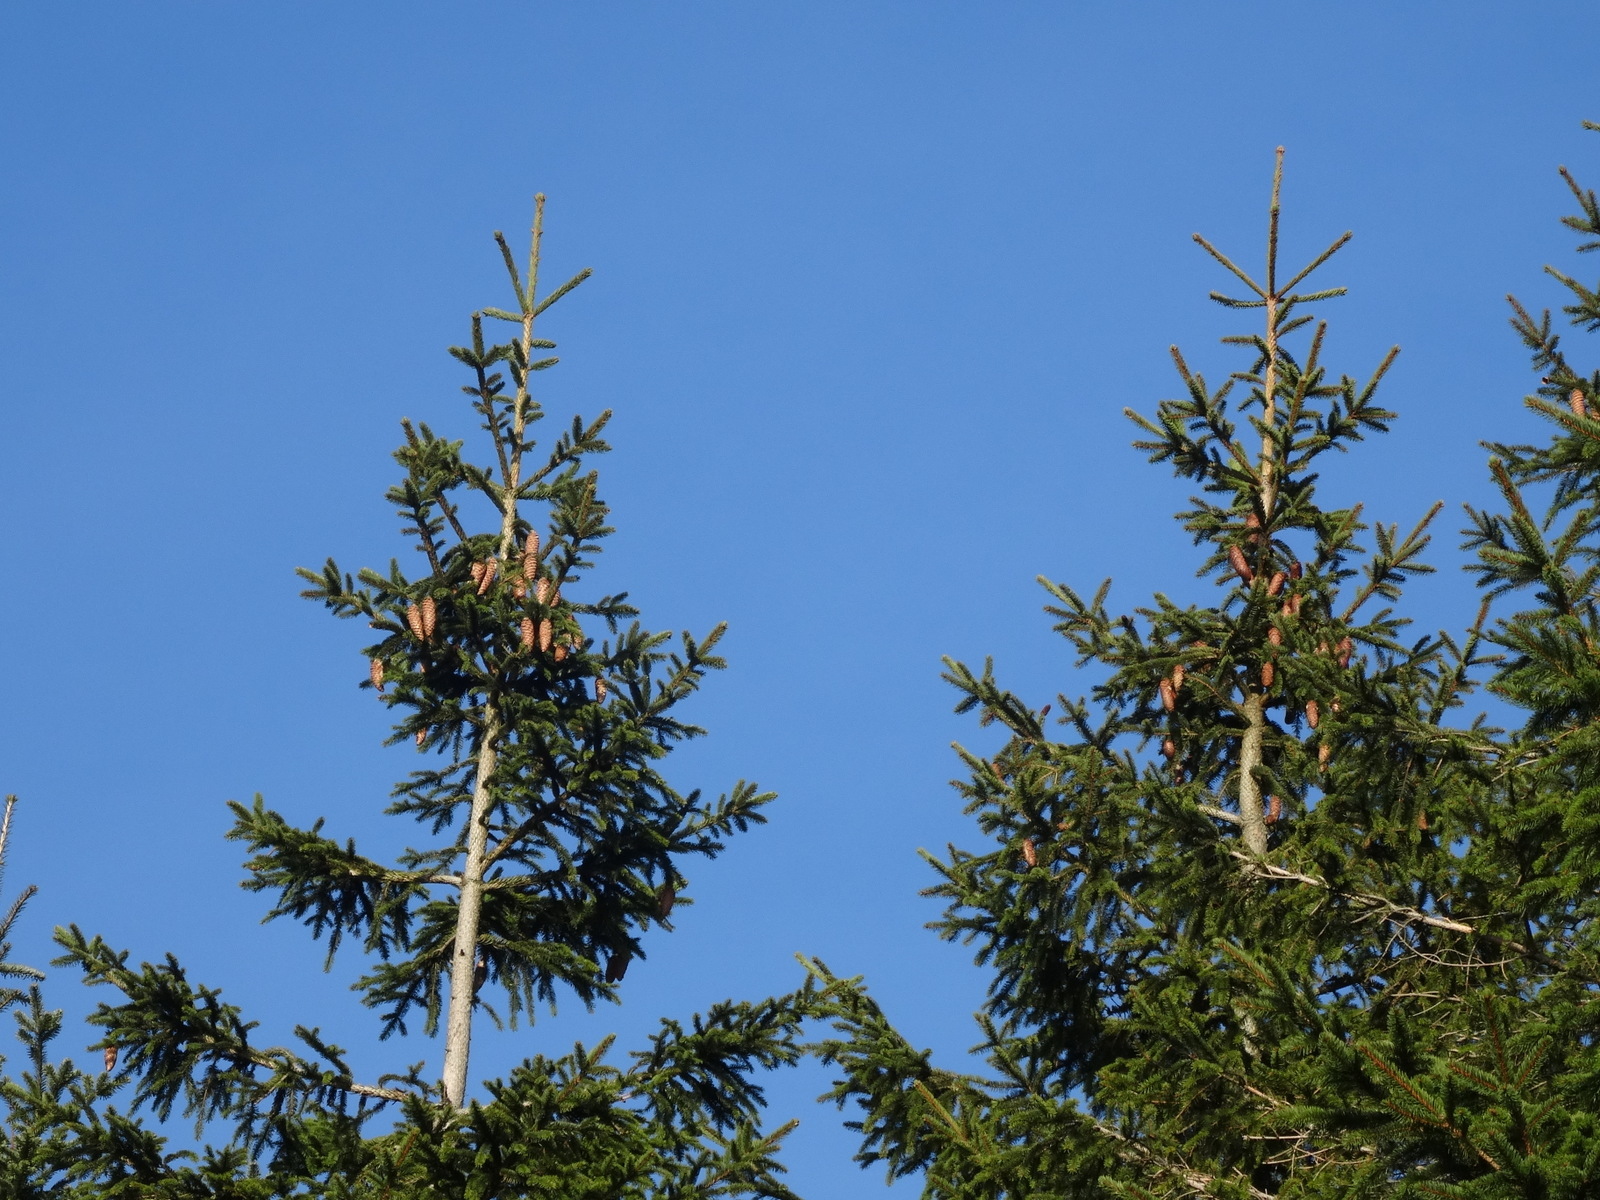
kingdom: Plantae
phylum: Tracheophyta
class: Pinopsida
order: Pinales
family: Pinaceae
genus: Picea
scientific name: Picea abies
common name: Norway spruce
